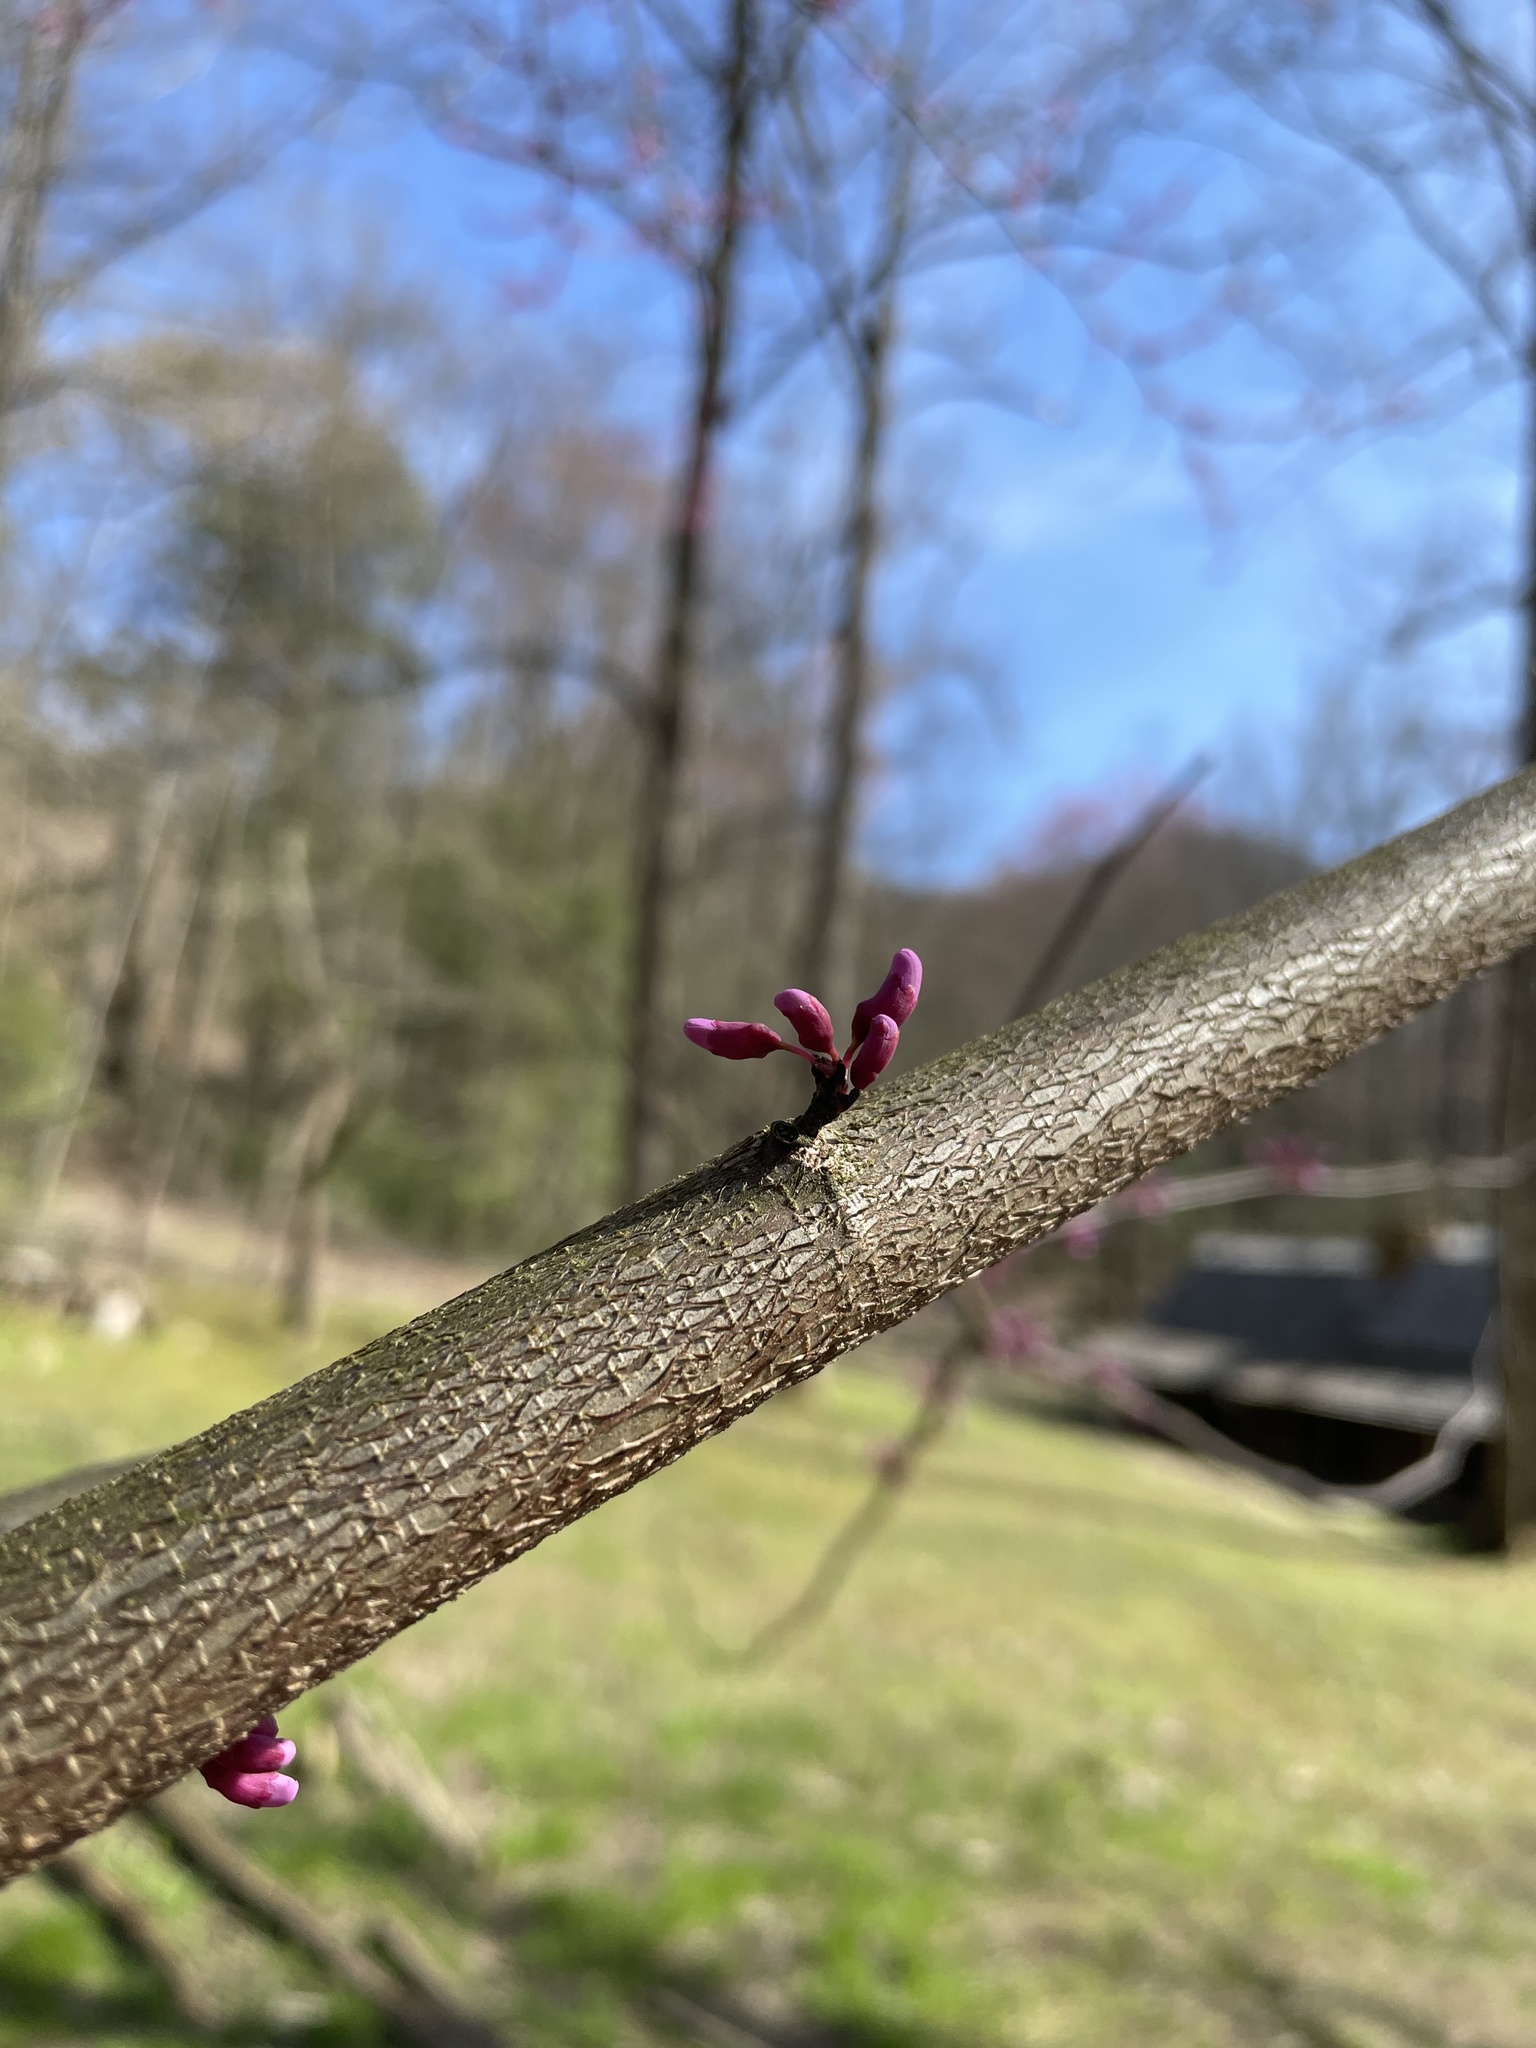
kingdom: Plantae
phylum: Tracheophyta
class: Magnoliopsida
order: Fabales
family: Fabaceae
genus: Cercis
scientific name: Cercis canadensis
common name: Eastern redbud
